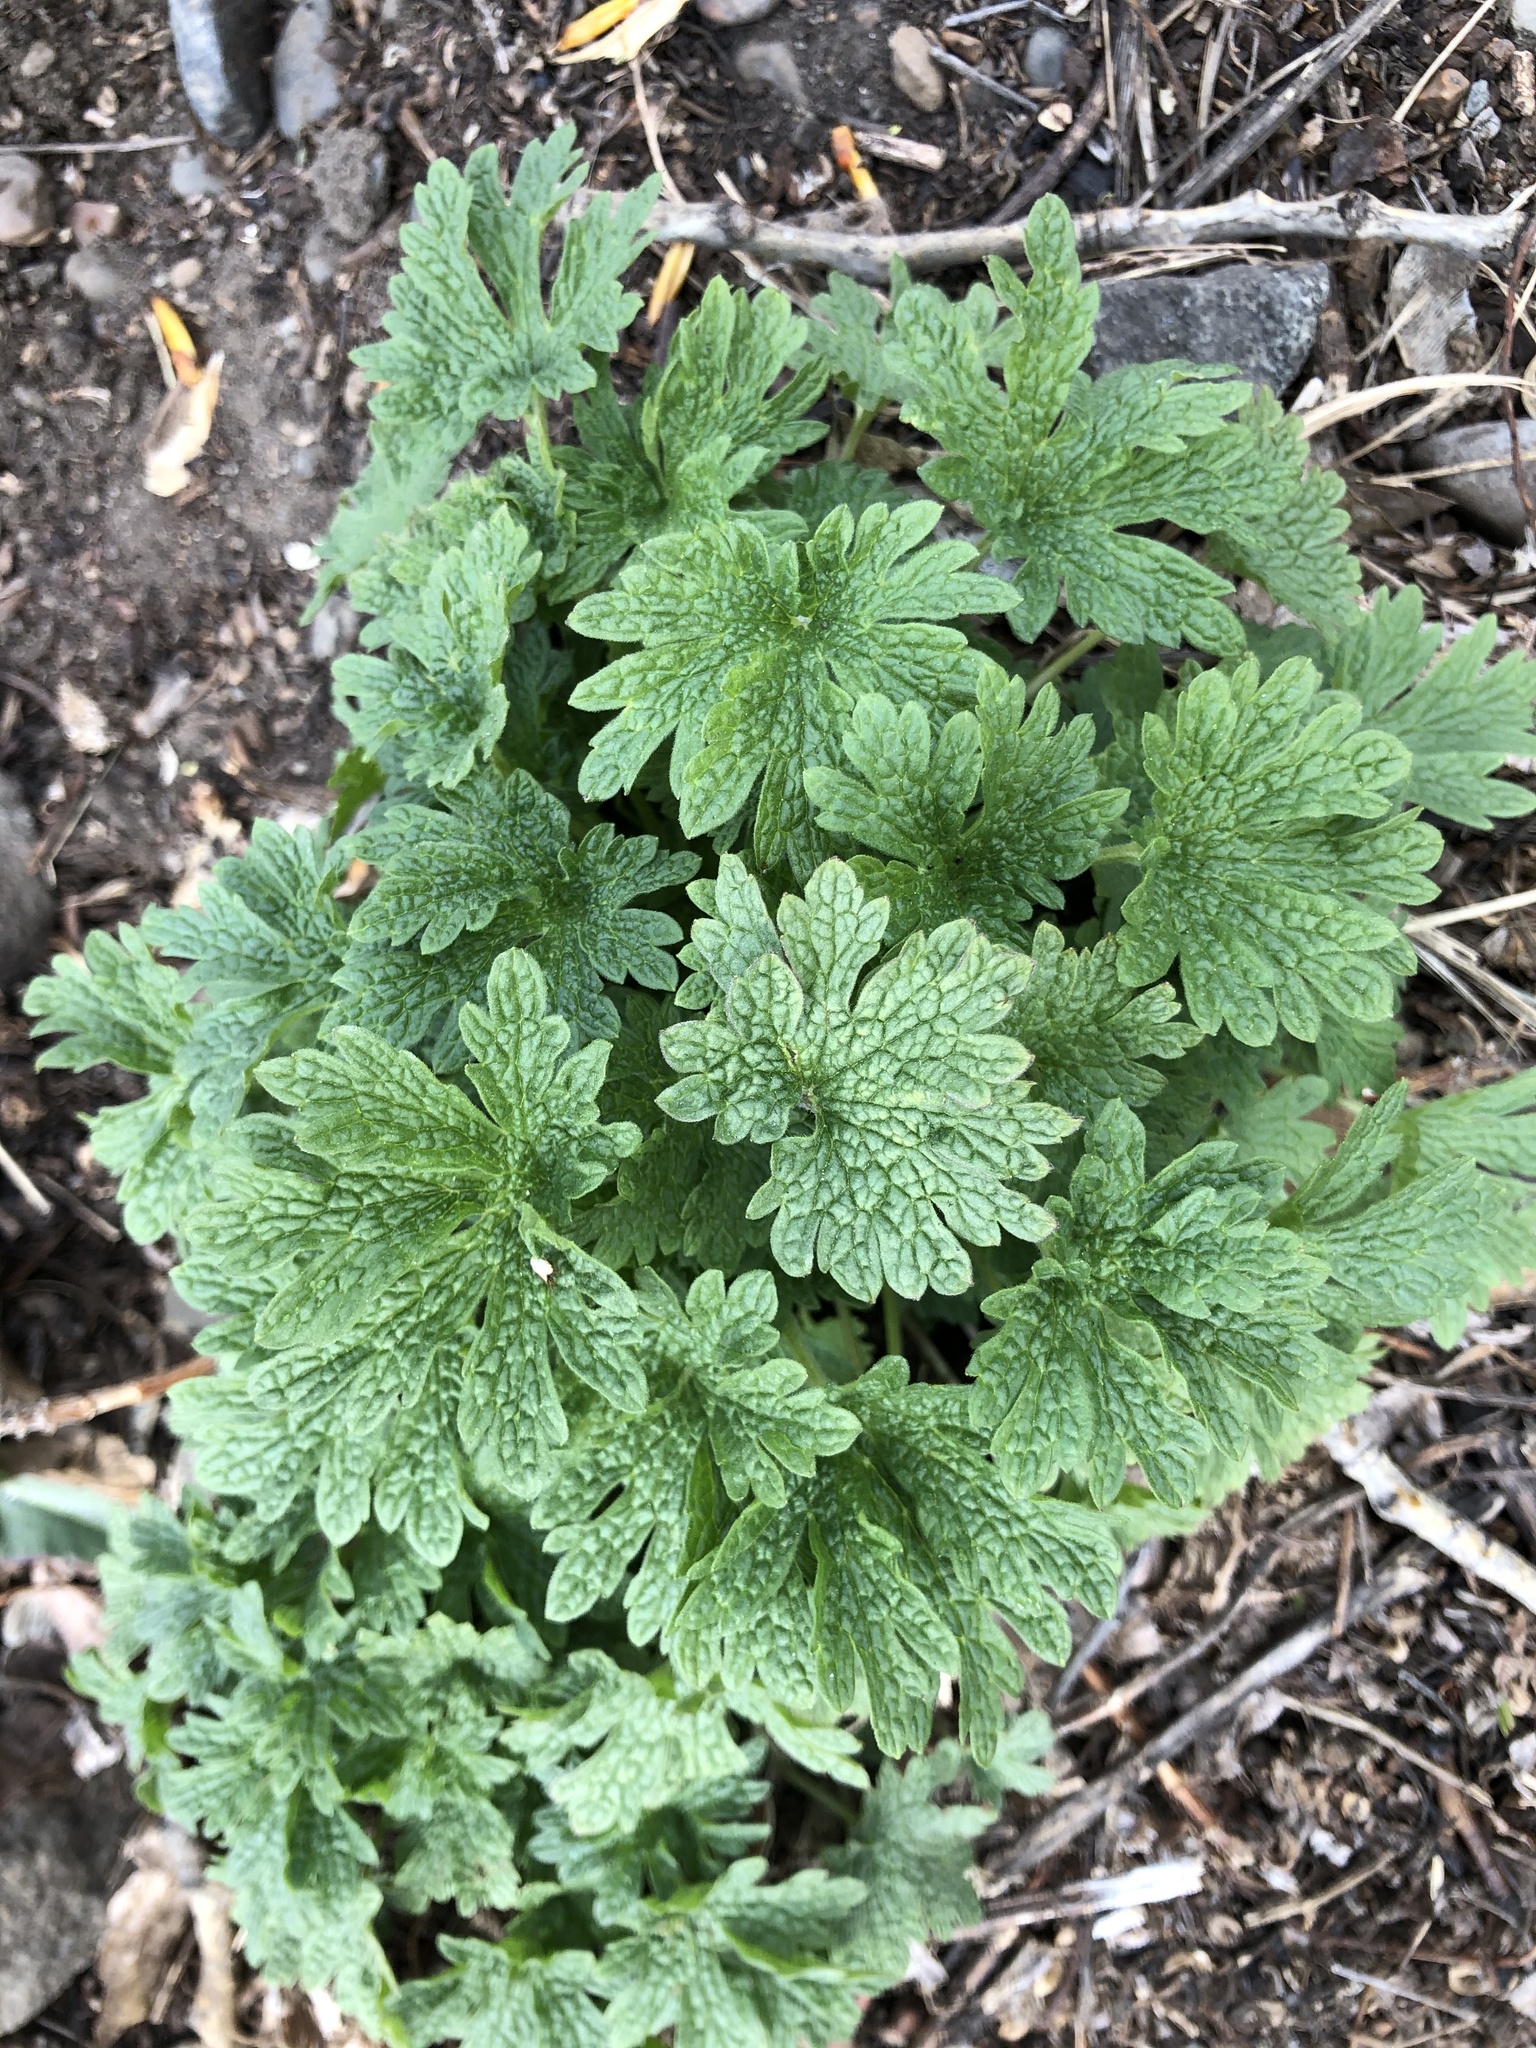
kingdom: Plantae
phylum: Tracheophyta
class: Magnoliopsida
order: Lamiales
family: Lamiaceae
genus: Leonurus
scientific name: Leonurus quinquelobatus
